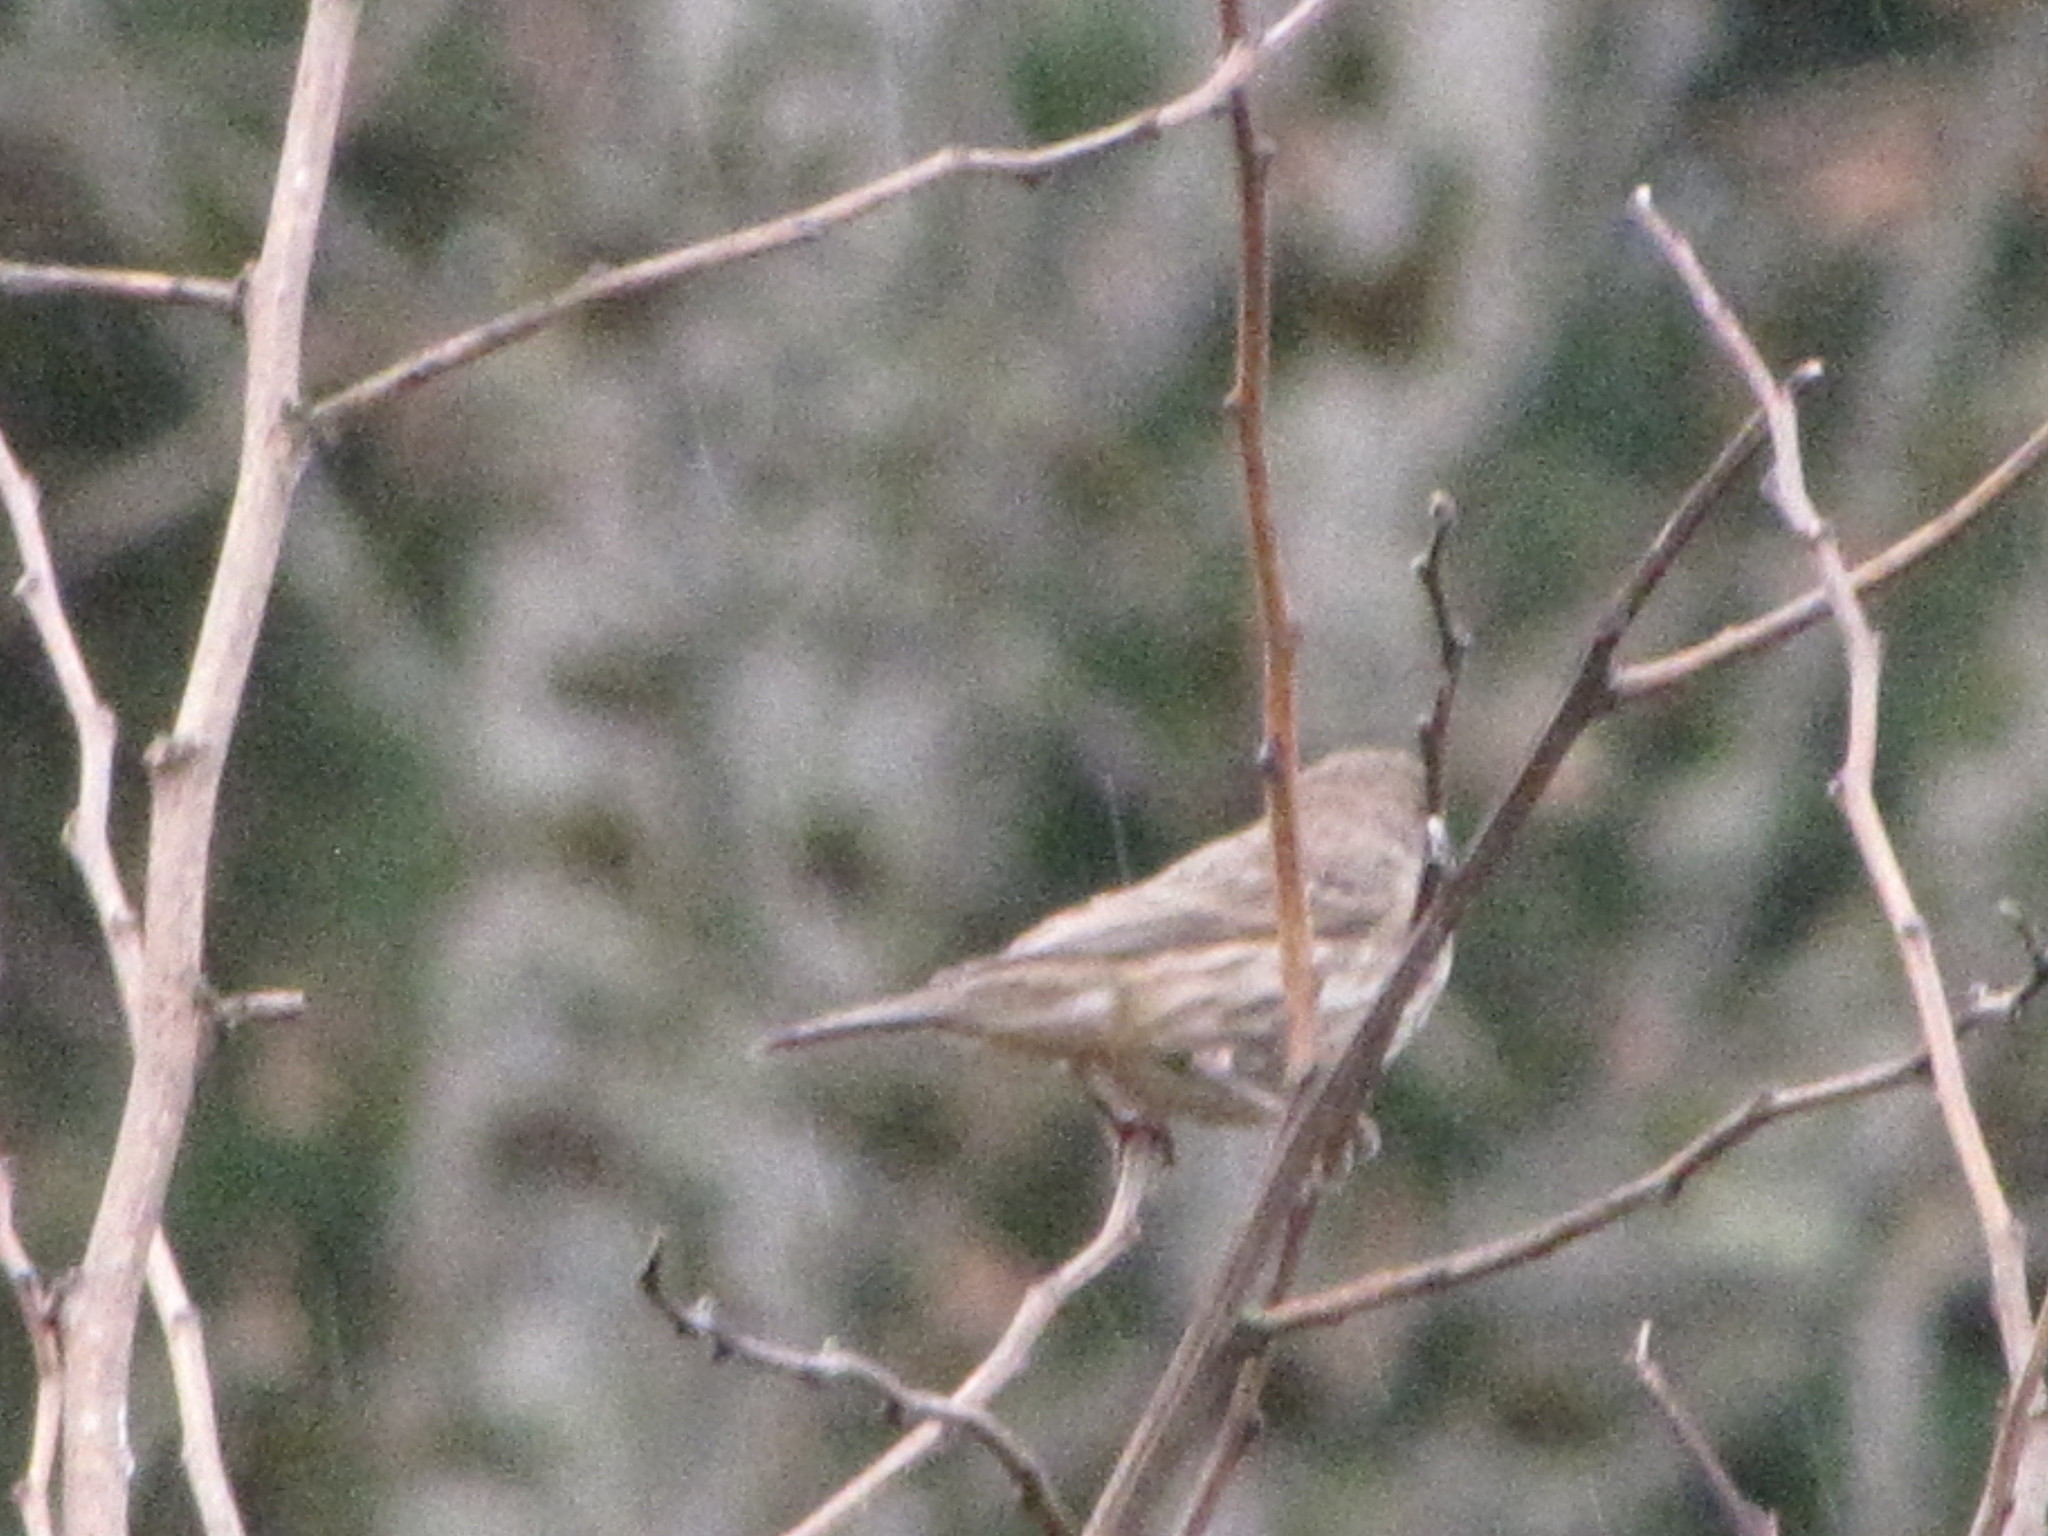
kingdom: Animalia
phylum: Chordata
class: Aves
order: Passeriformes
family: Fringillidae
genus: Haemorhous
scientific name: Haemorhous mexicanus
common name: House finch
